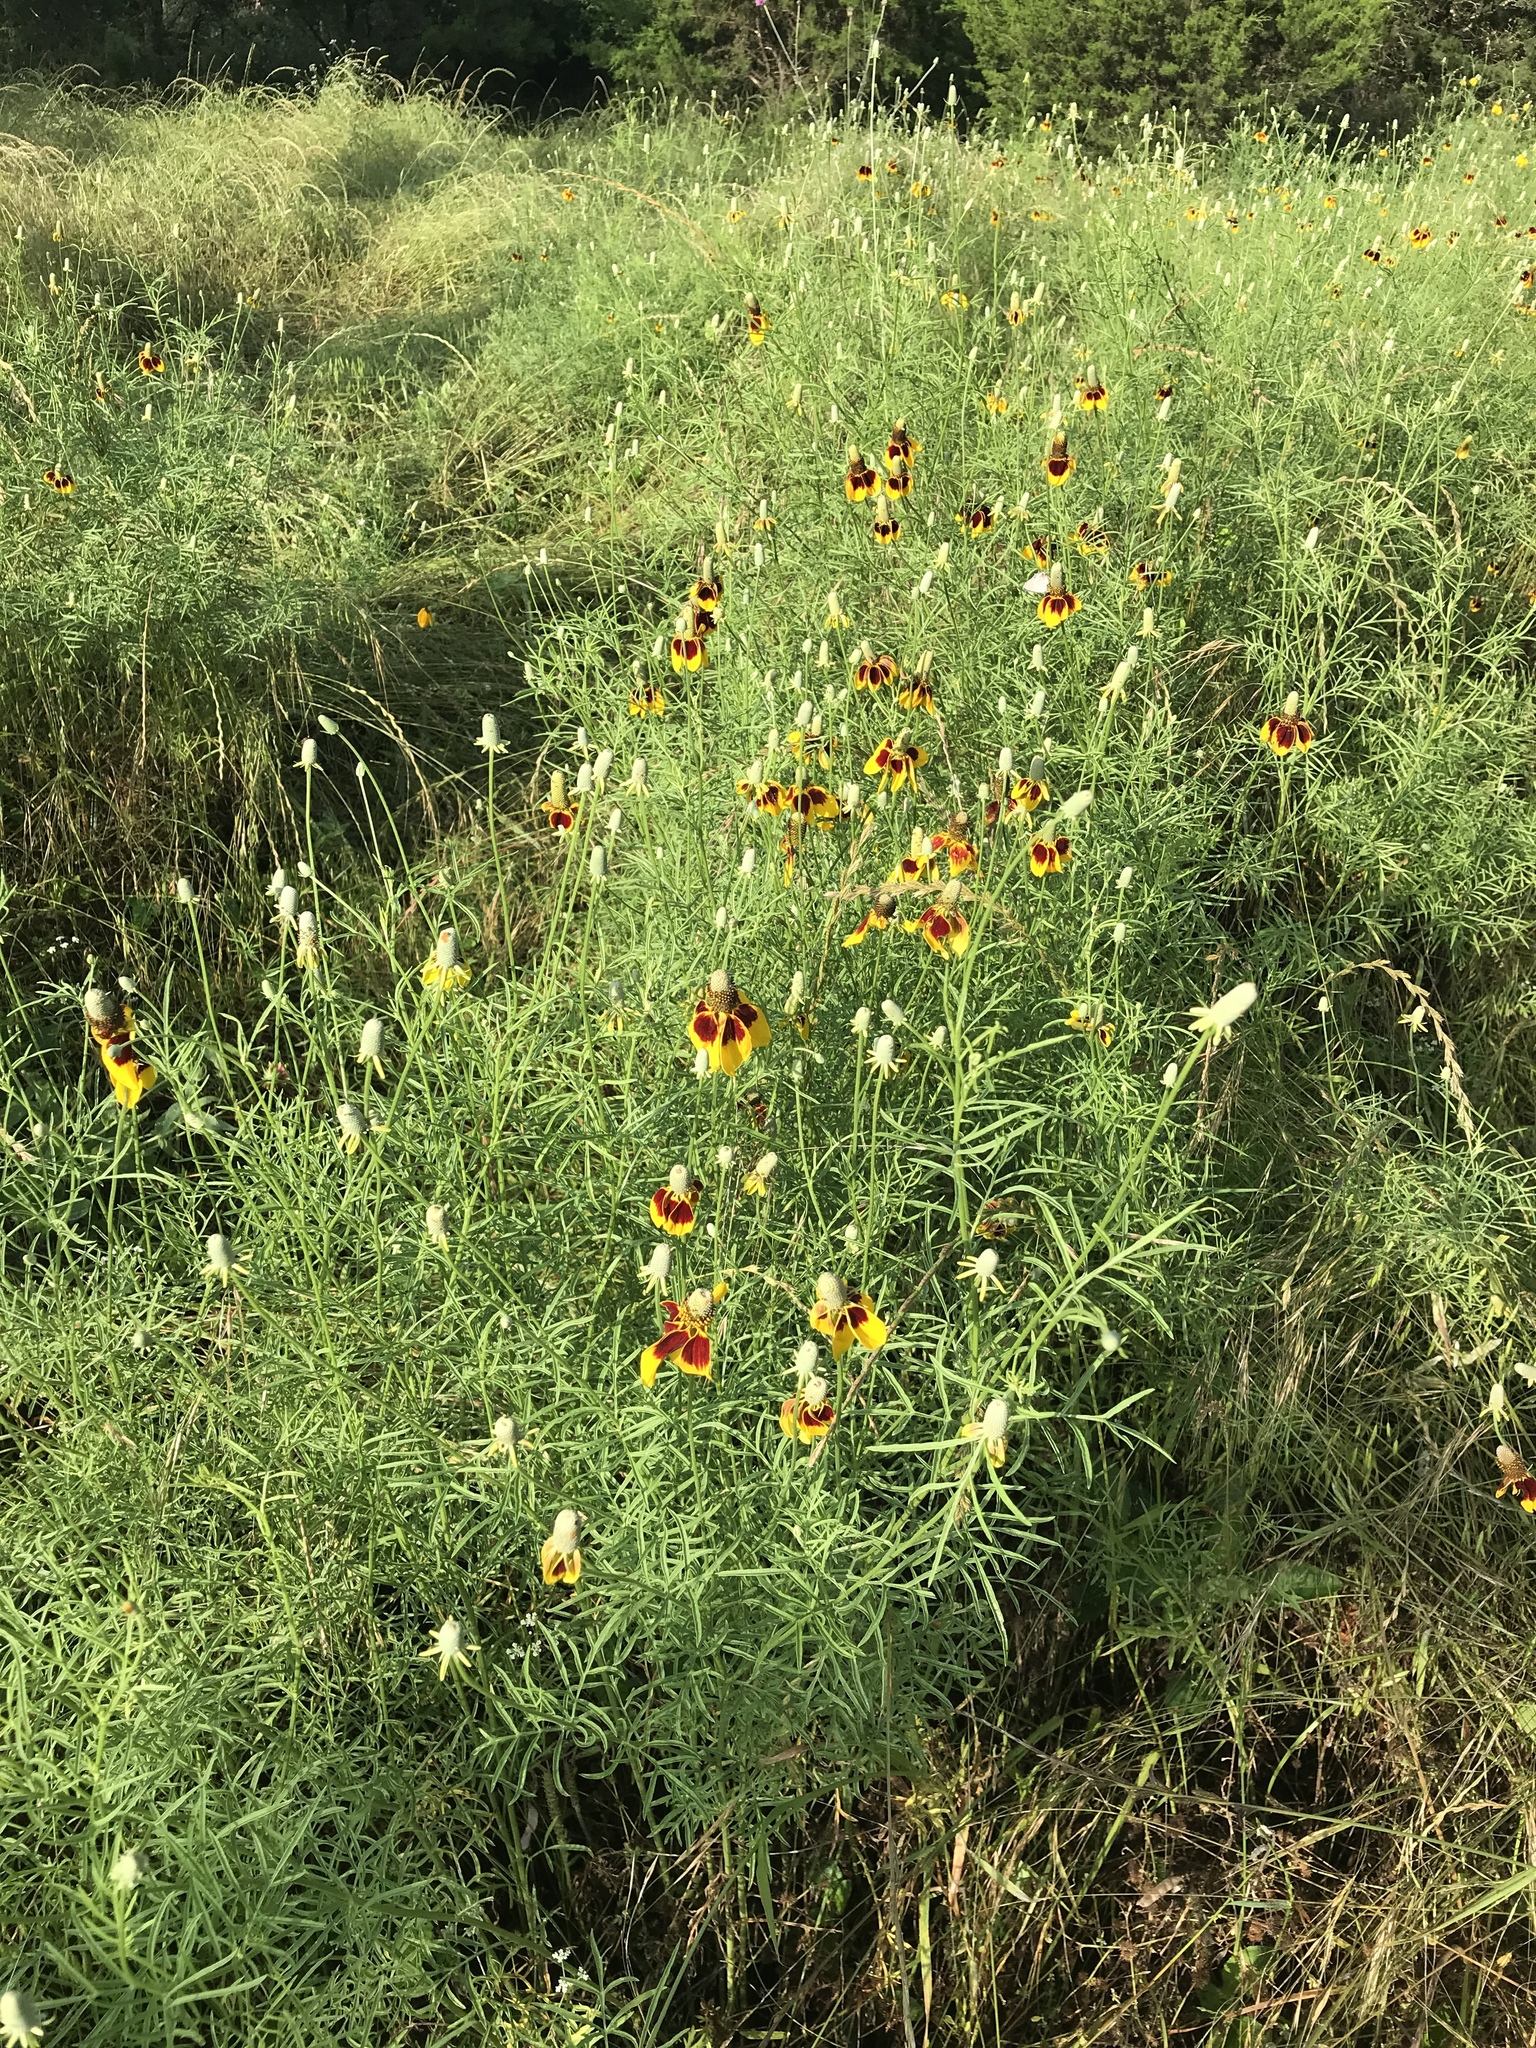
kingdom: Plantae
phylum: Tracheophyta
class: Magnoliopsida
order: Asterales
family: Asteraceae
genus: Ratibida
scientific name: Ratibida columnifera
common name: Prairie coneflower
